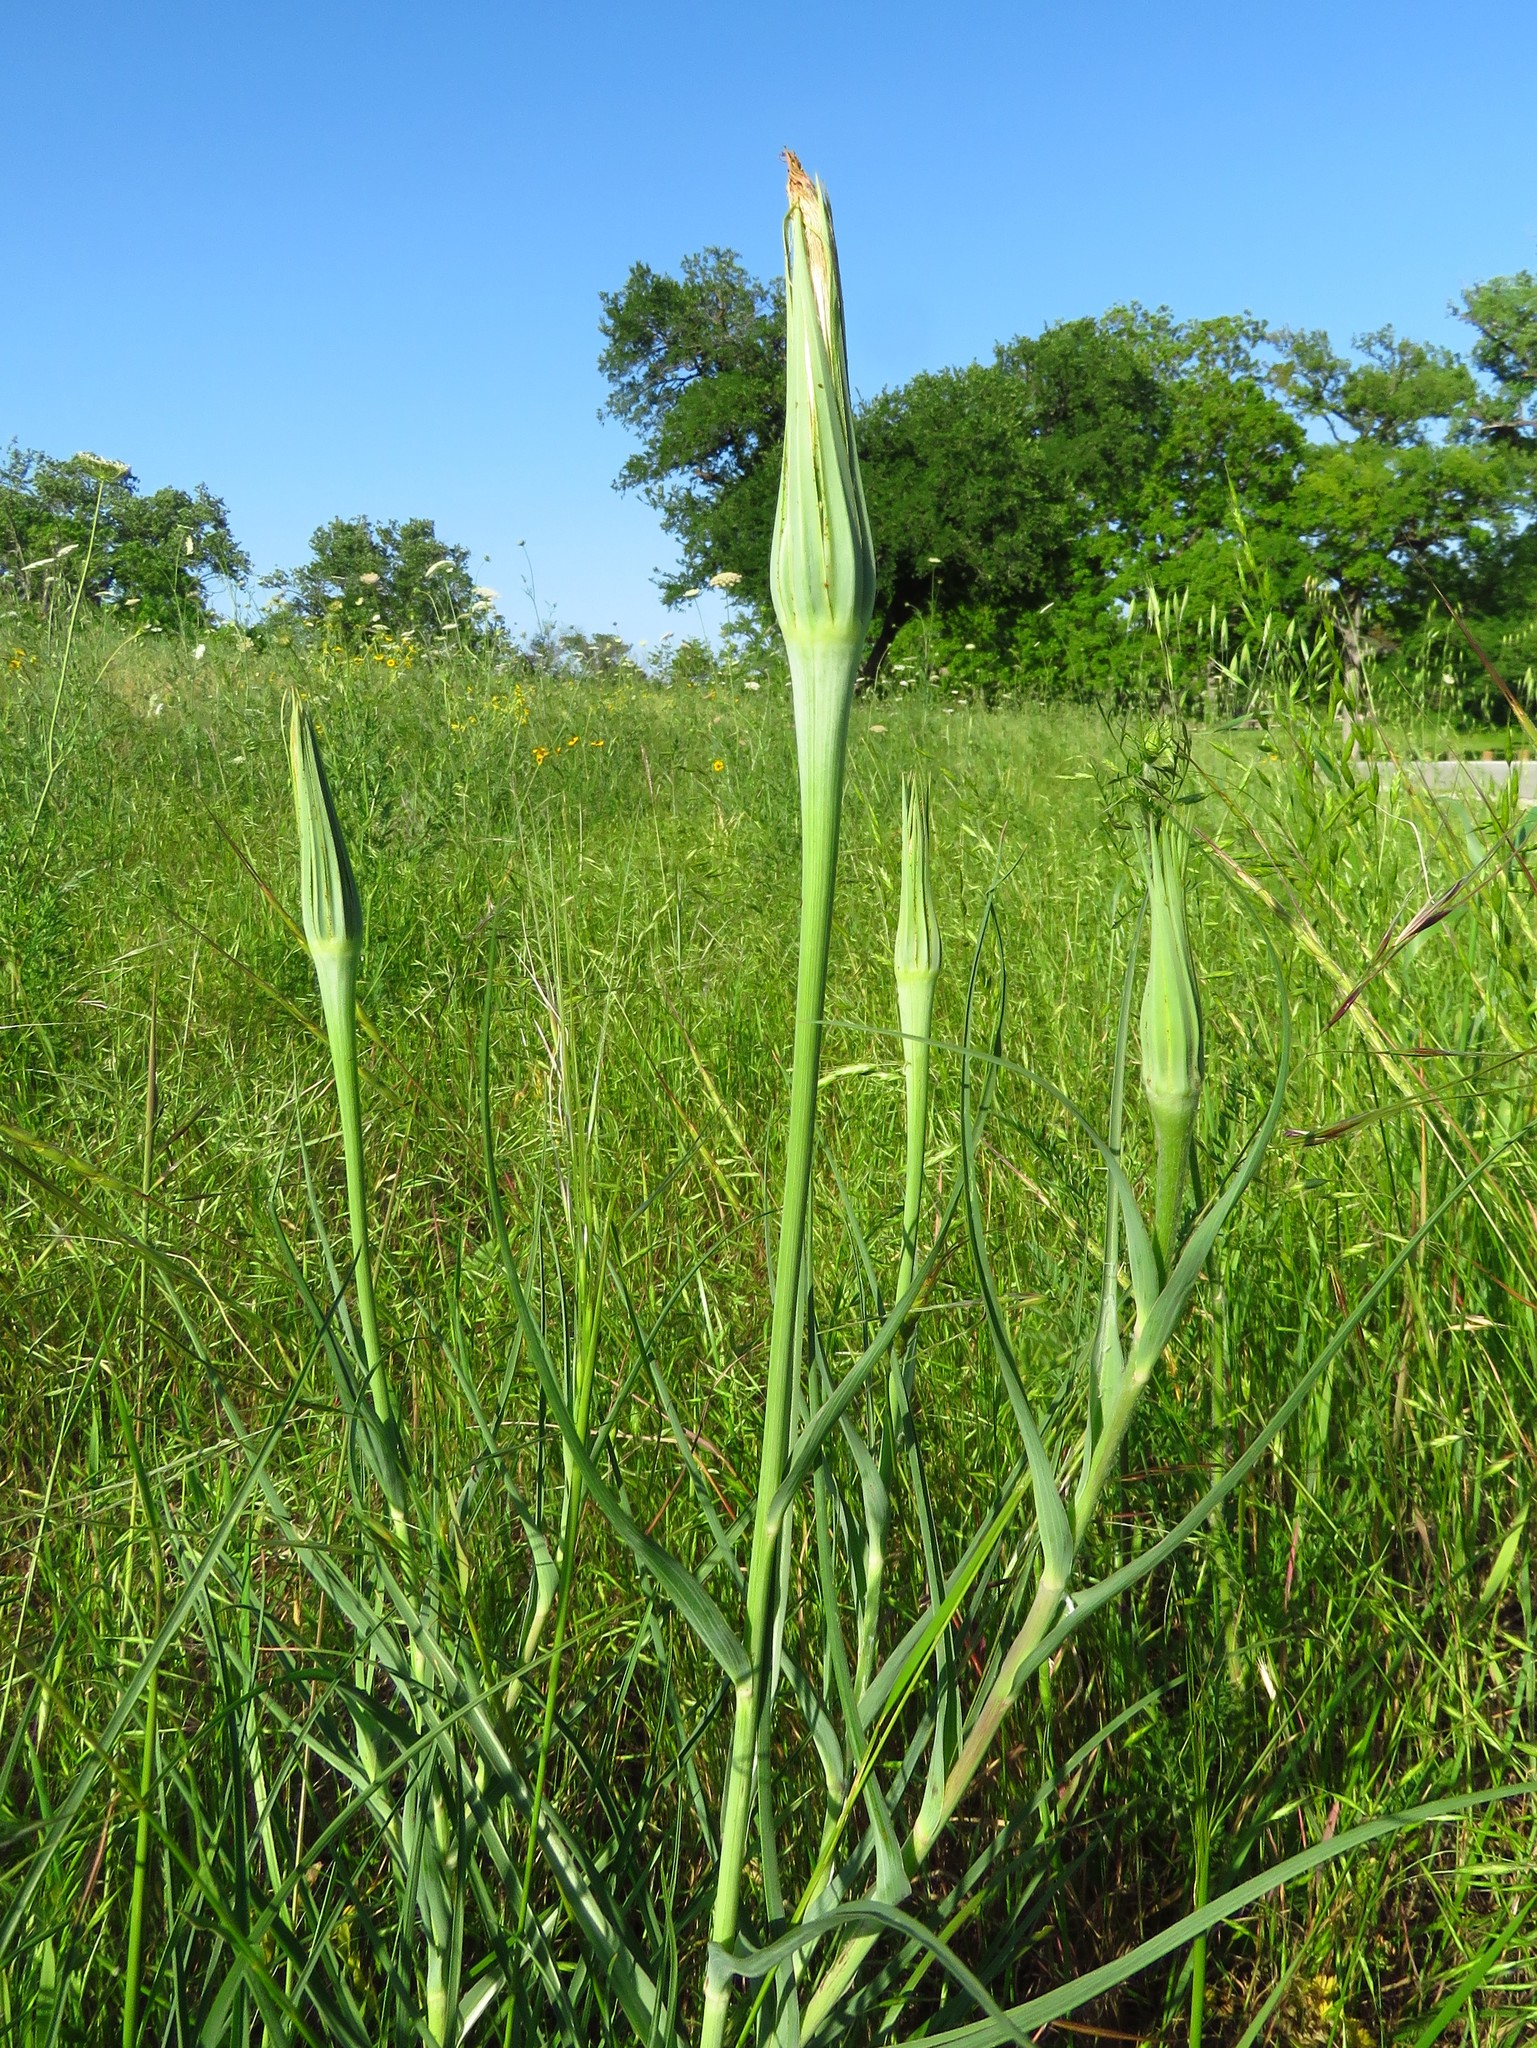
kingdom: Plantae
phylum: Tracheophyta
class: Magnoliopsida
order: Asterales
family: Asteraceae
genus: Tragopogon
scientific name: Tragopogon dubius
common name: Yellow salsify
